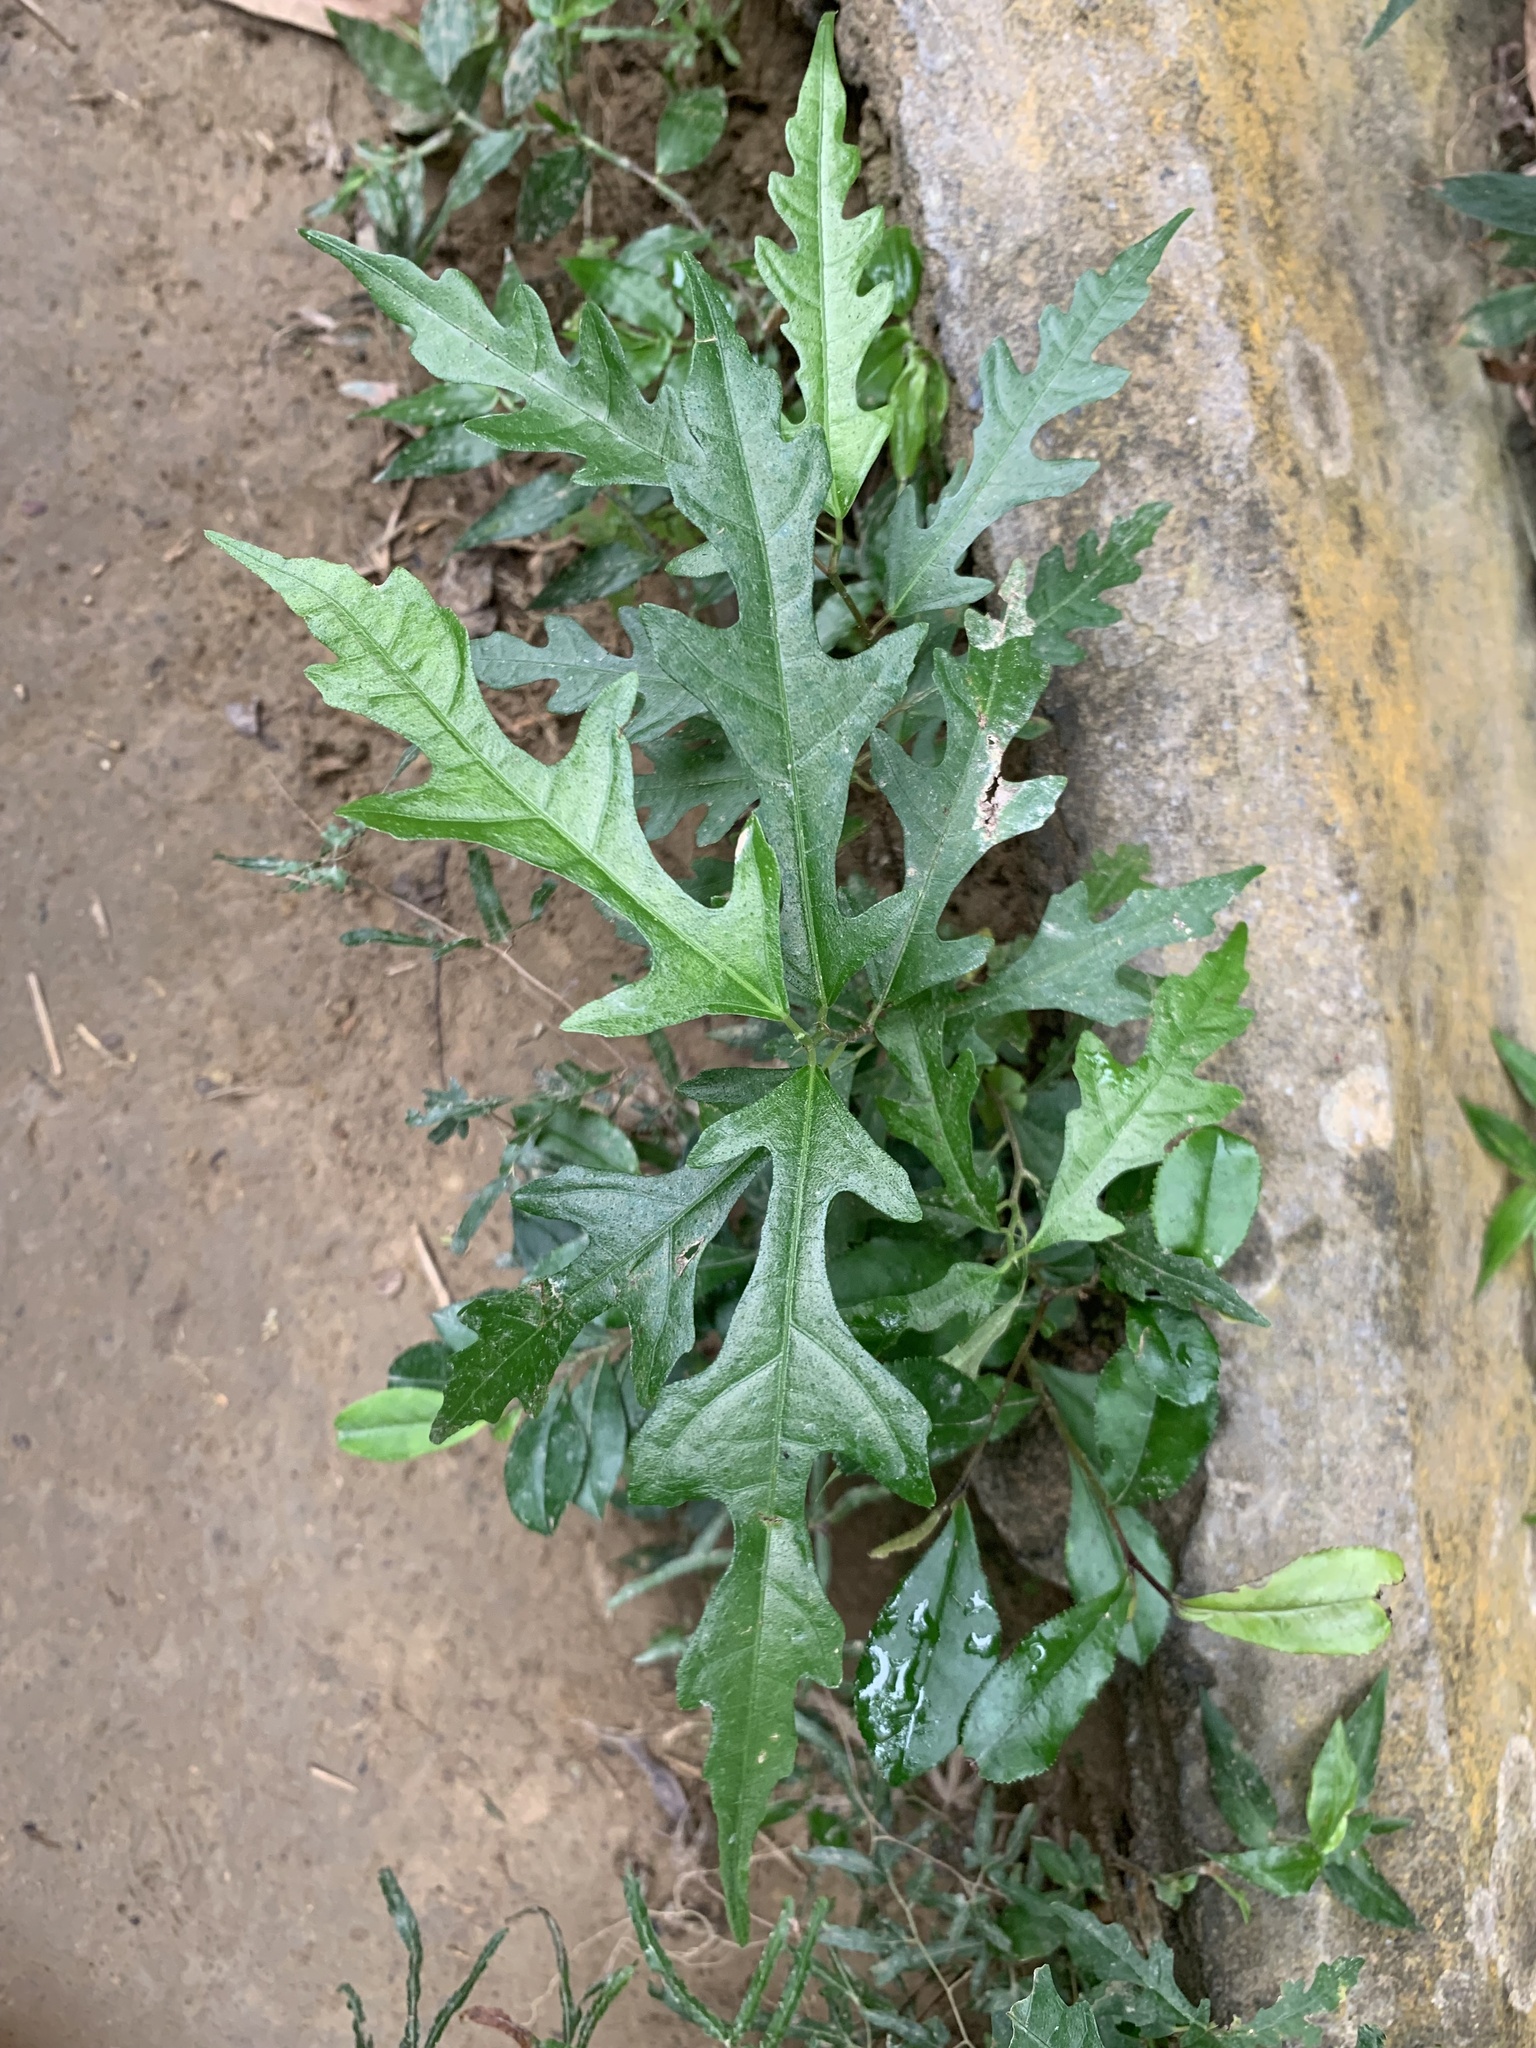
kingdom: Plantae
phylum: Tracheophyta
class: Magnoliopsida
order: Rosales
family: Moraceae
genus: Ficus
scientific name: Ficus ampelos
